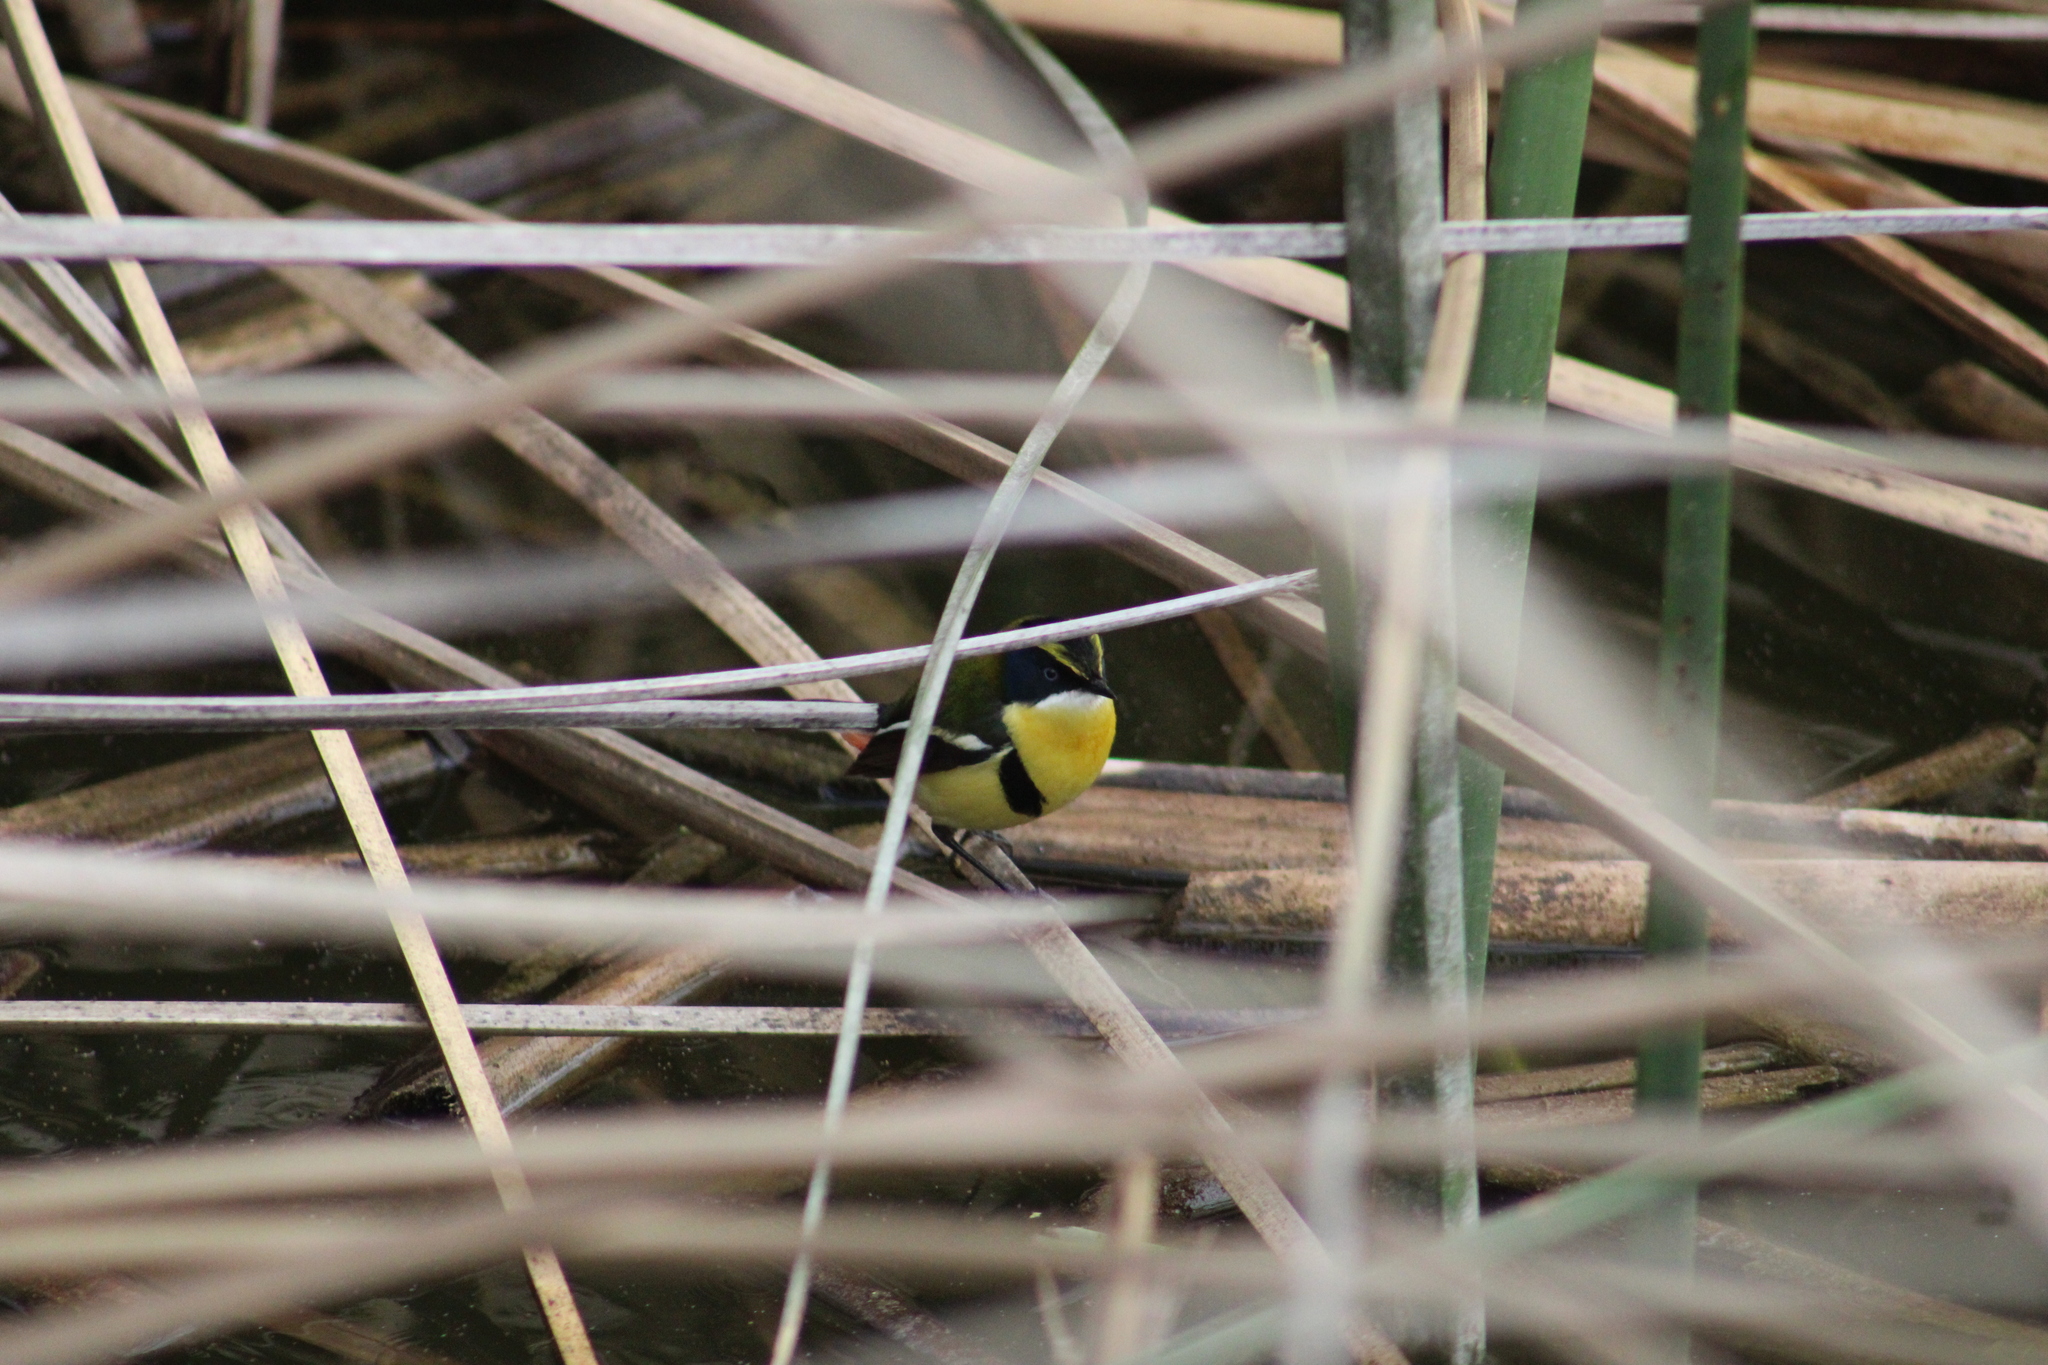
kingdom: Animalia
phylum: Chordata
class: Aves
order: Passeriformes
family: Tyrannidae
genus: Tachuris
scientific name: Tachuris rubrigastra
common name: Many-colored rush tyrant
